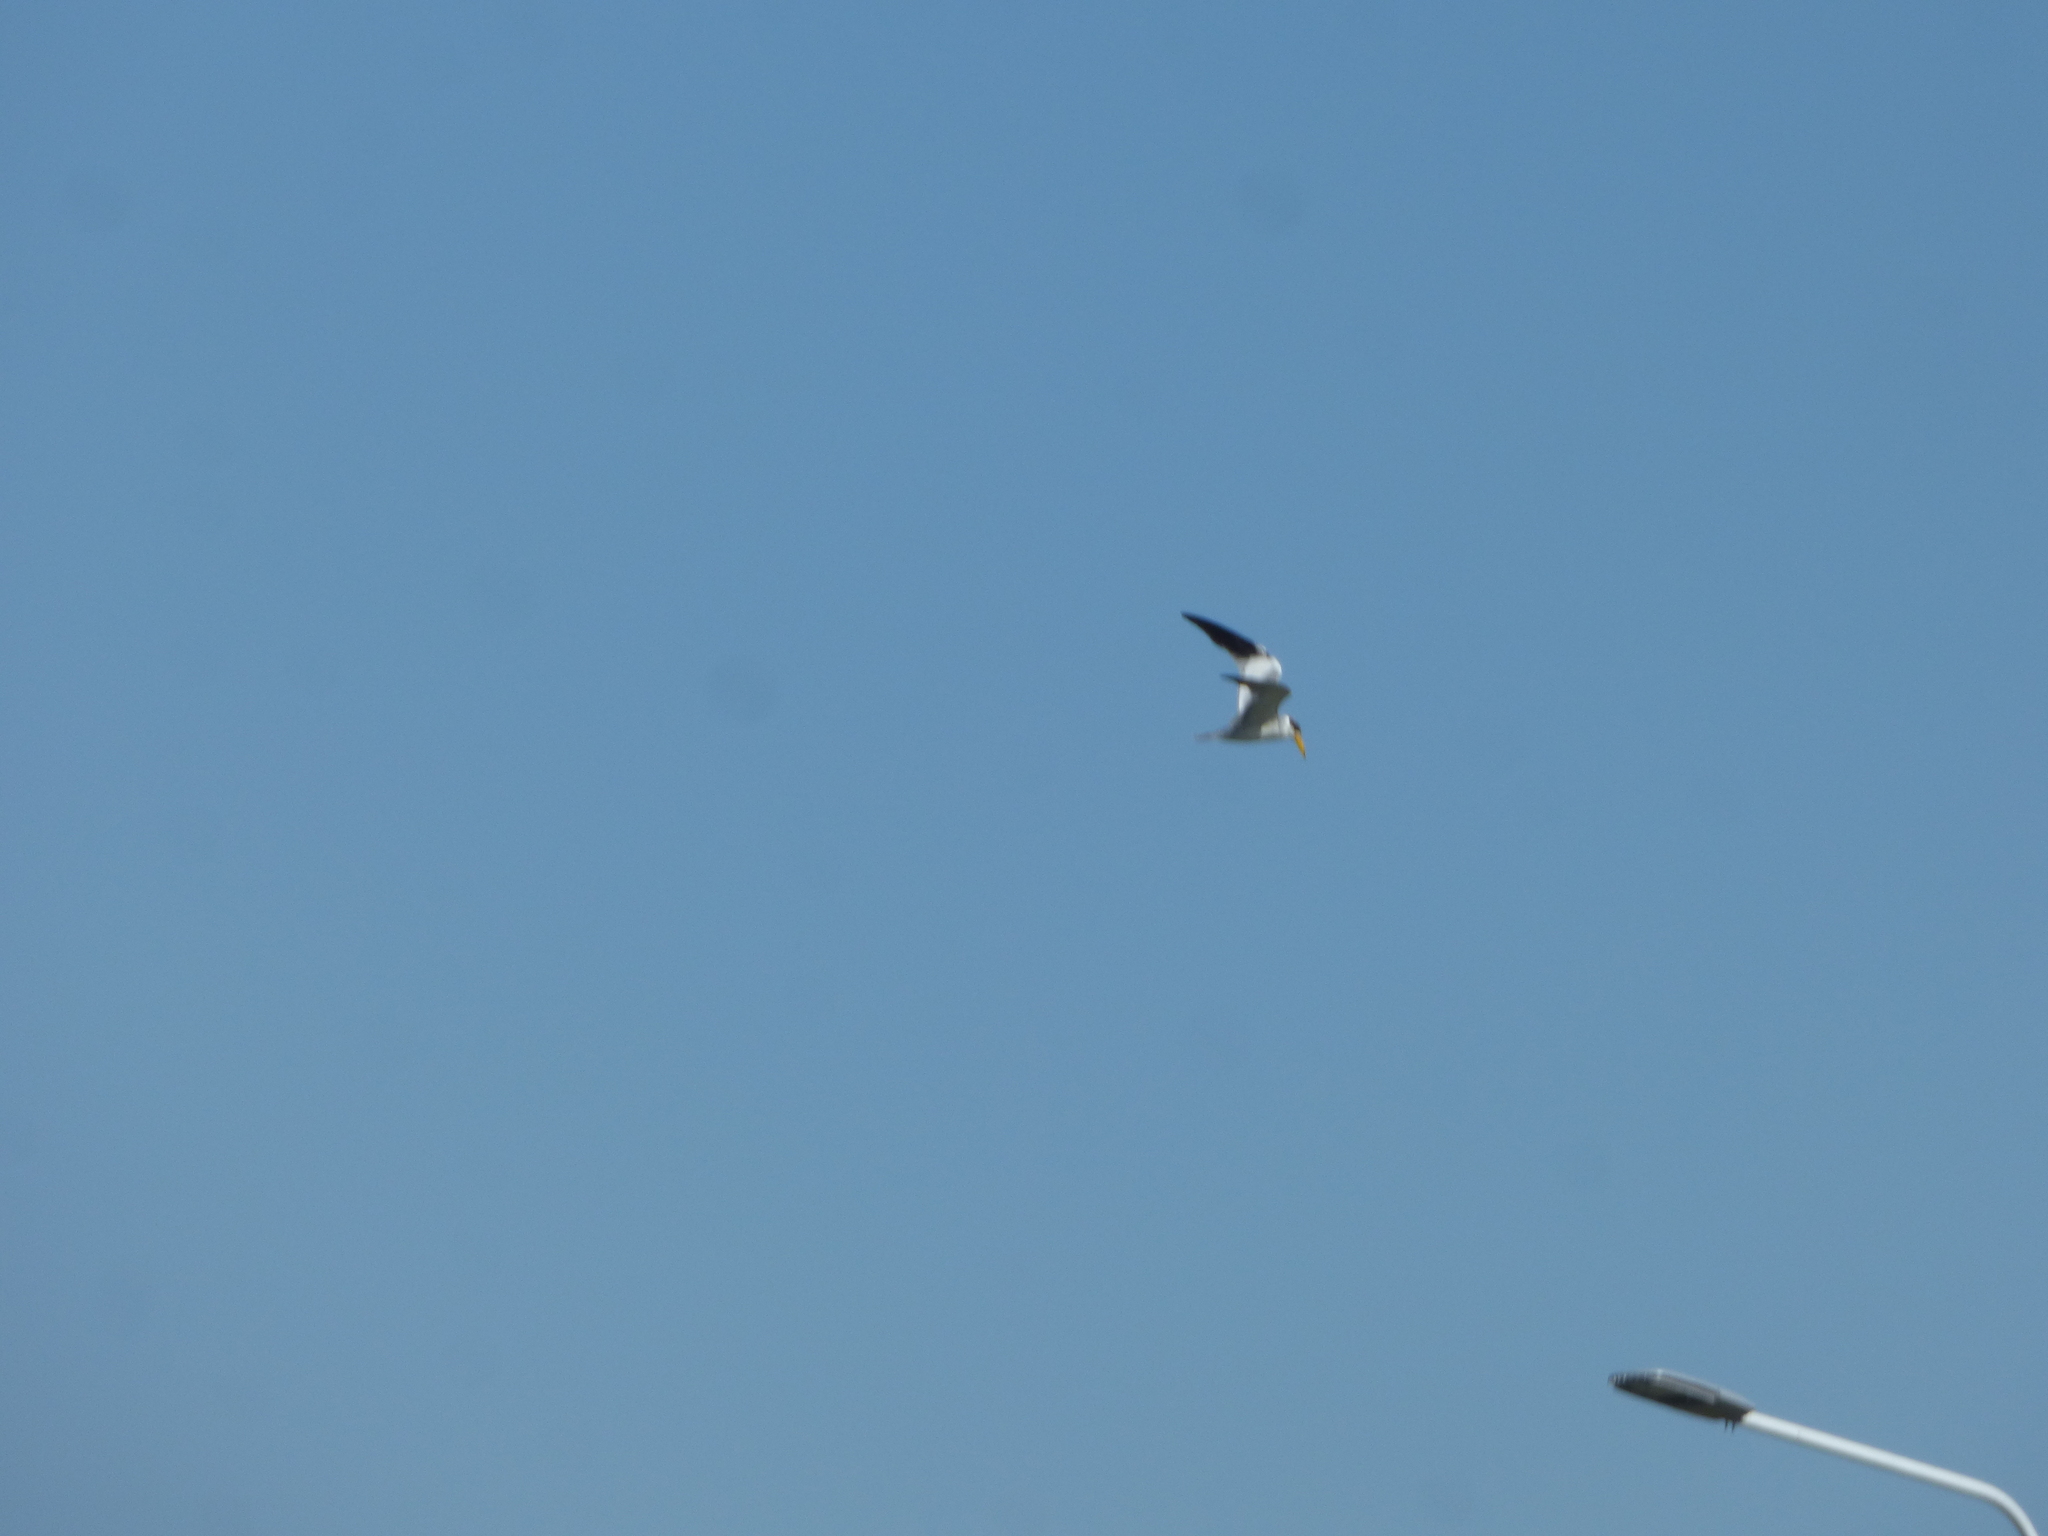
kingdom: Animalia
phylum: Chordata
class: Aves
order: Charadriiformes
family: Laridae
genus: Phaetusa
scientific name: Phaetusa simplex
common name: Large-billed tern
